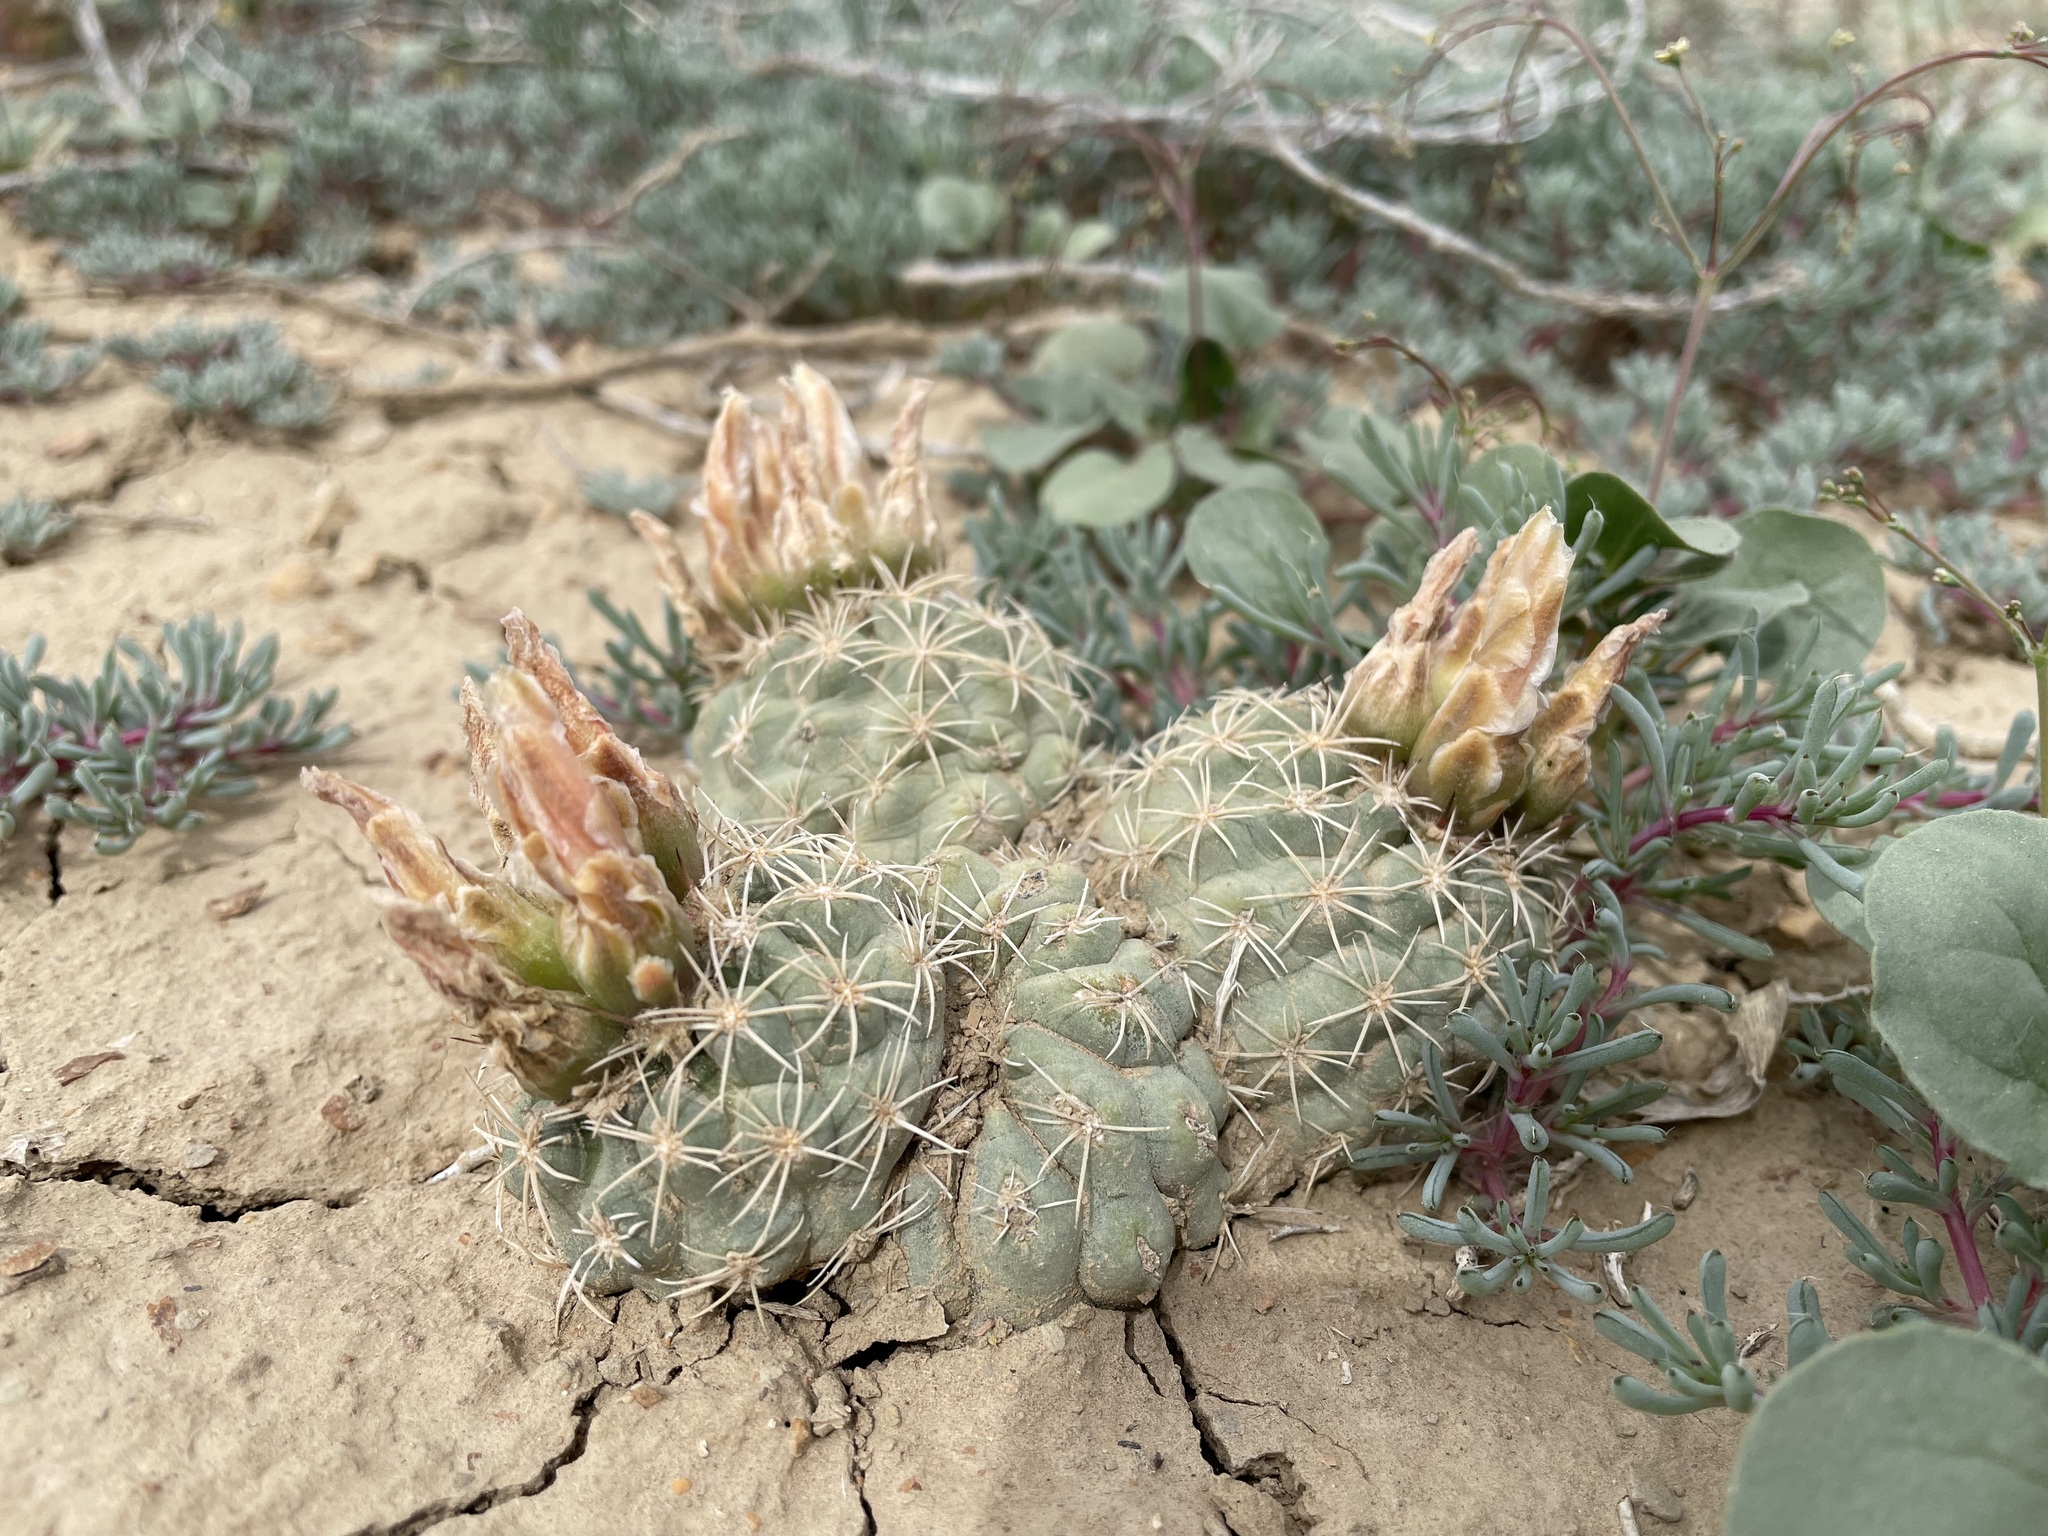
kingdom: Plantae
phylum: Tracheophyta
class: Magnoliopsida
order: Caryophyllales
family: Cactaceae
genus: Sclerocactus
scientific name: Sclerocactus mesae-verdae
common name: Mesa verde cactus
